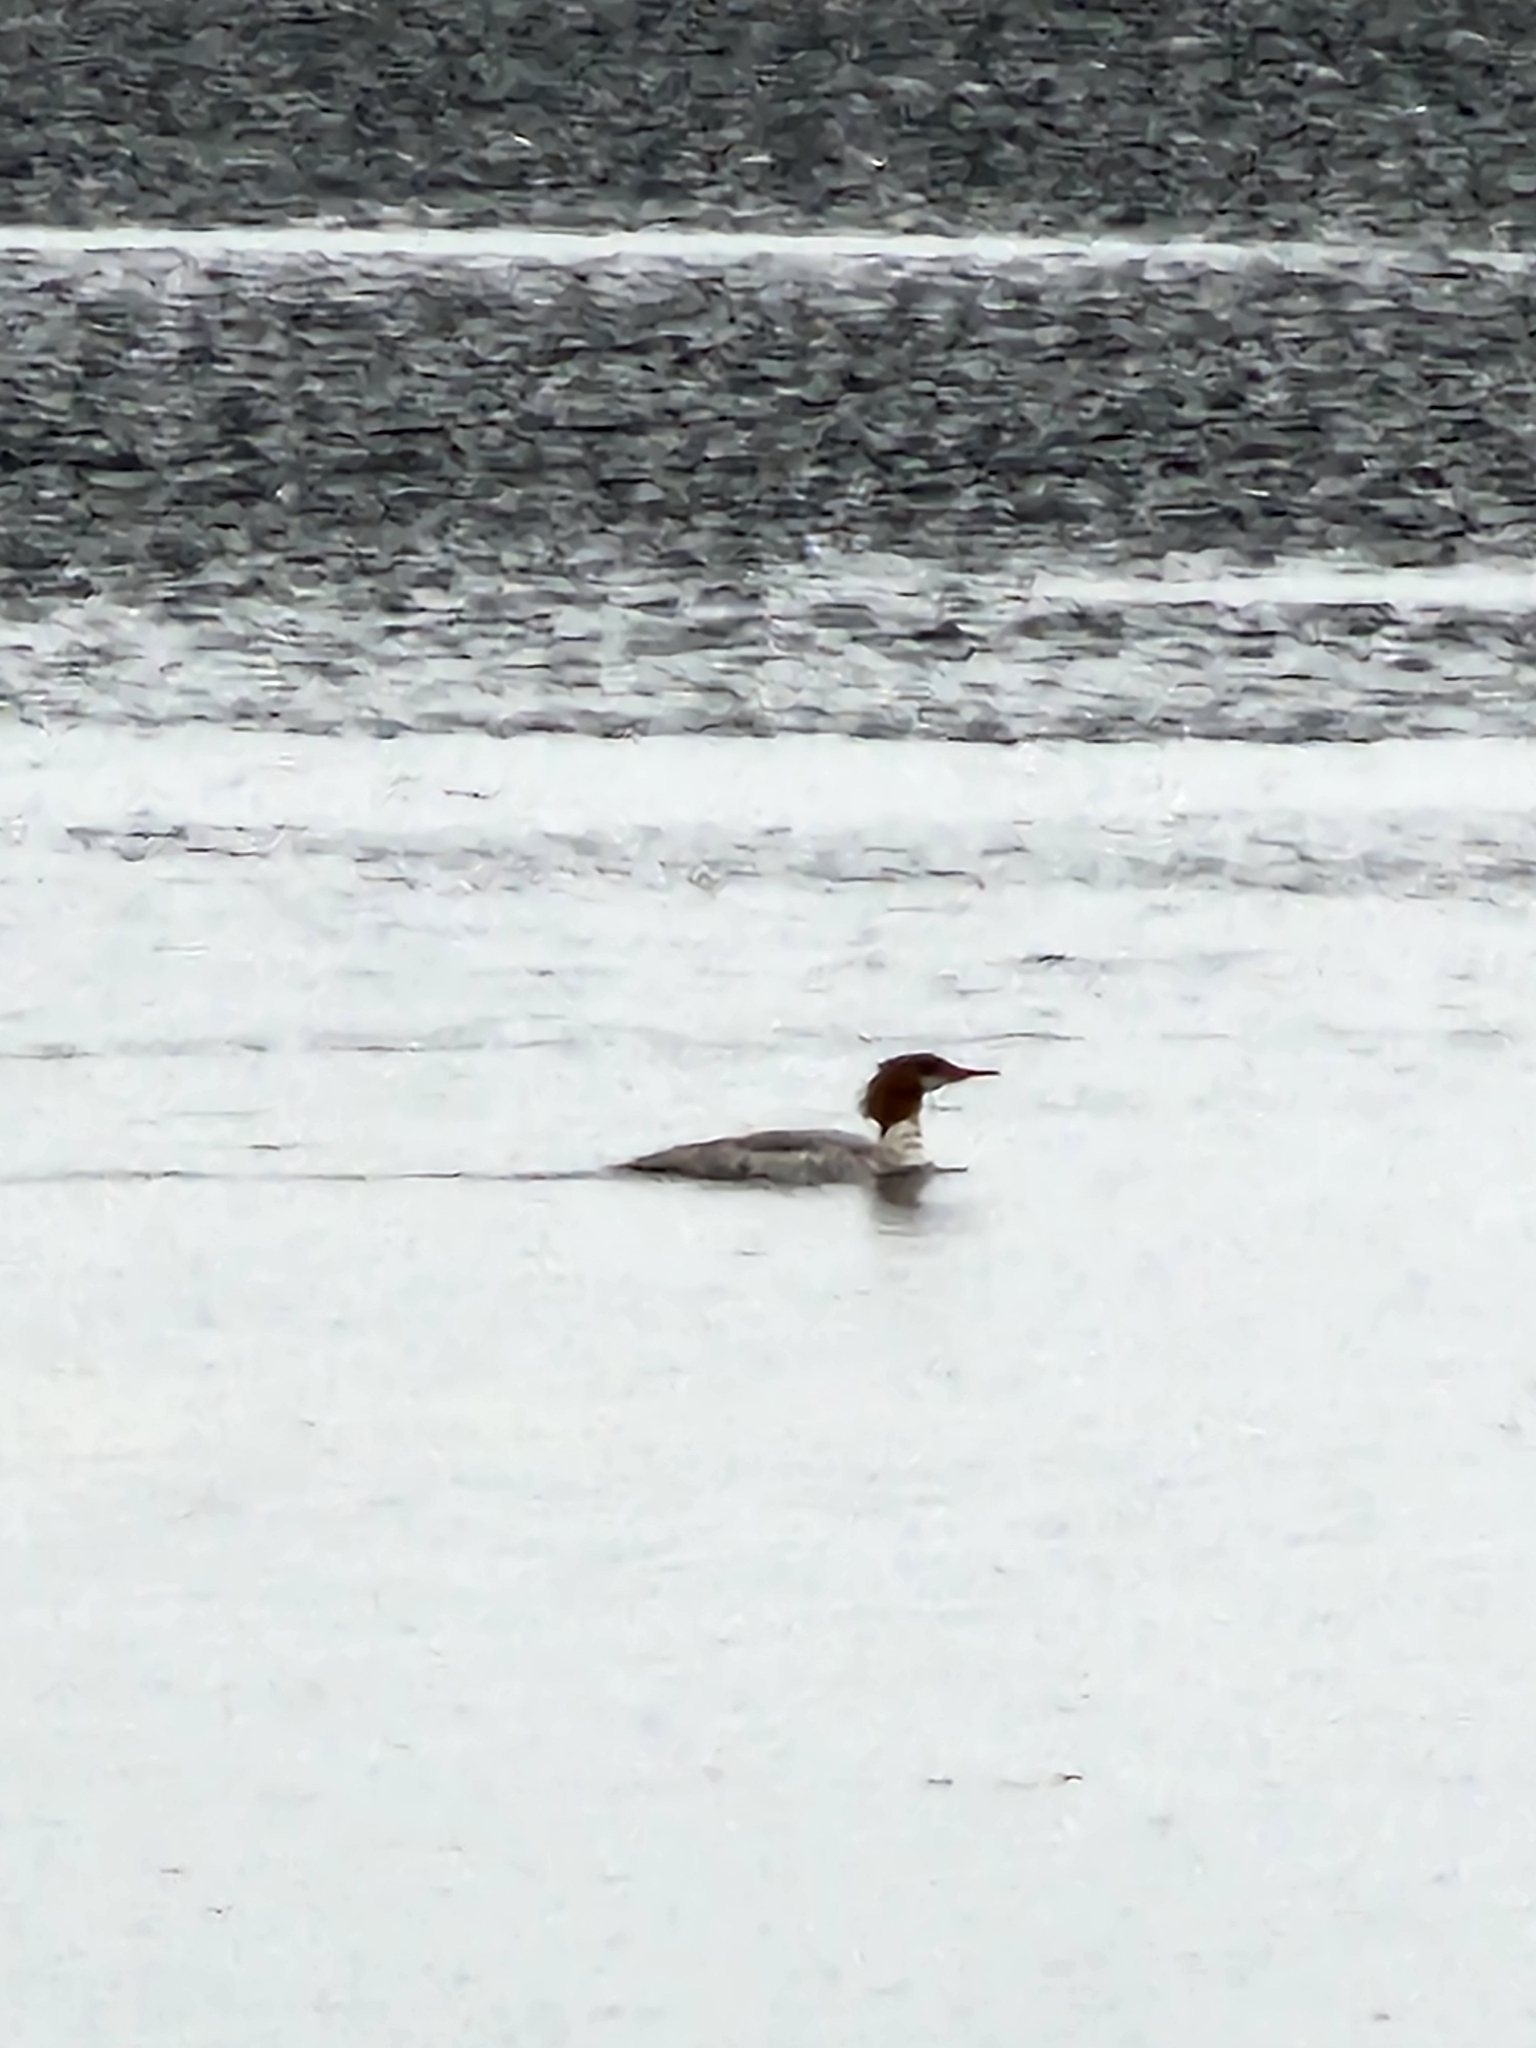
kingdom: Animalia
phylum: Chordata
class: Aves
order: Anseriformes
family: Anatidae
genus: Mergus
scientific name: Mergus merganser
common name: Common merganser
